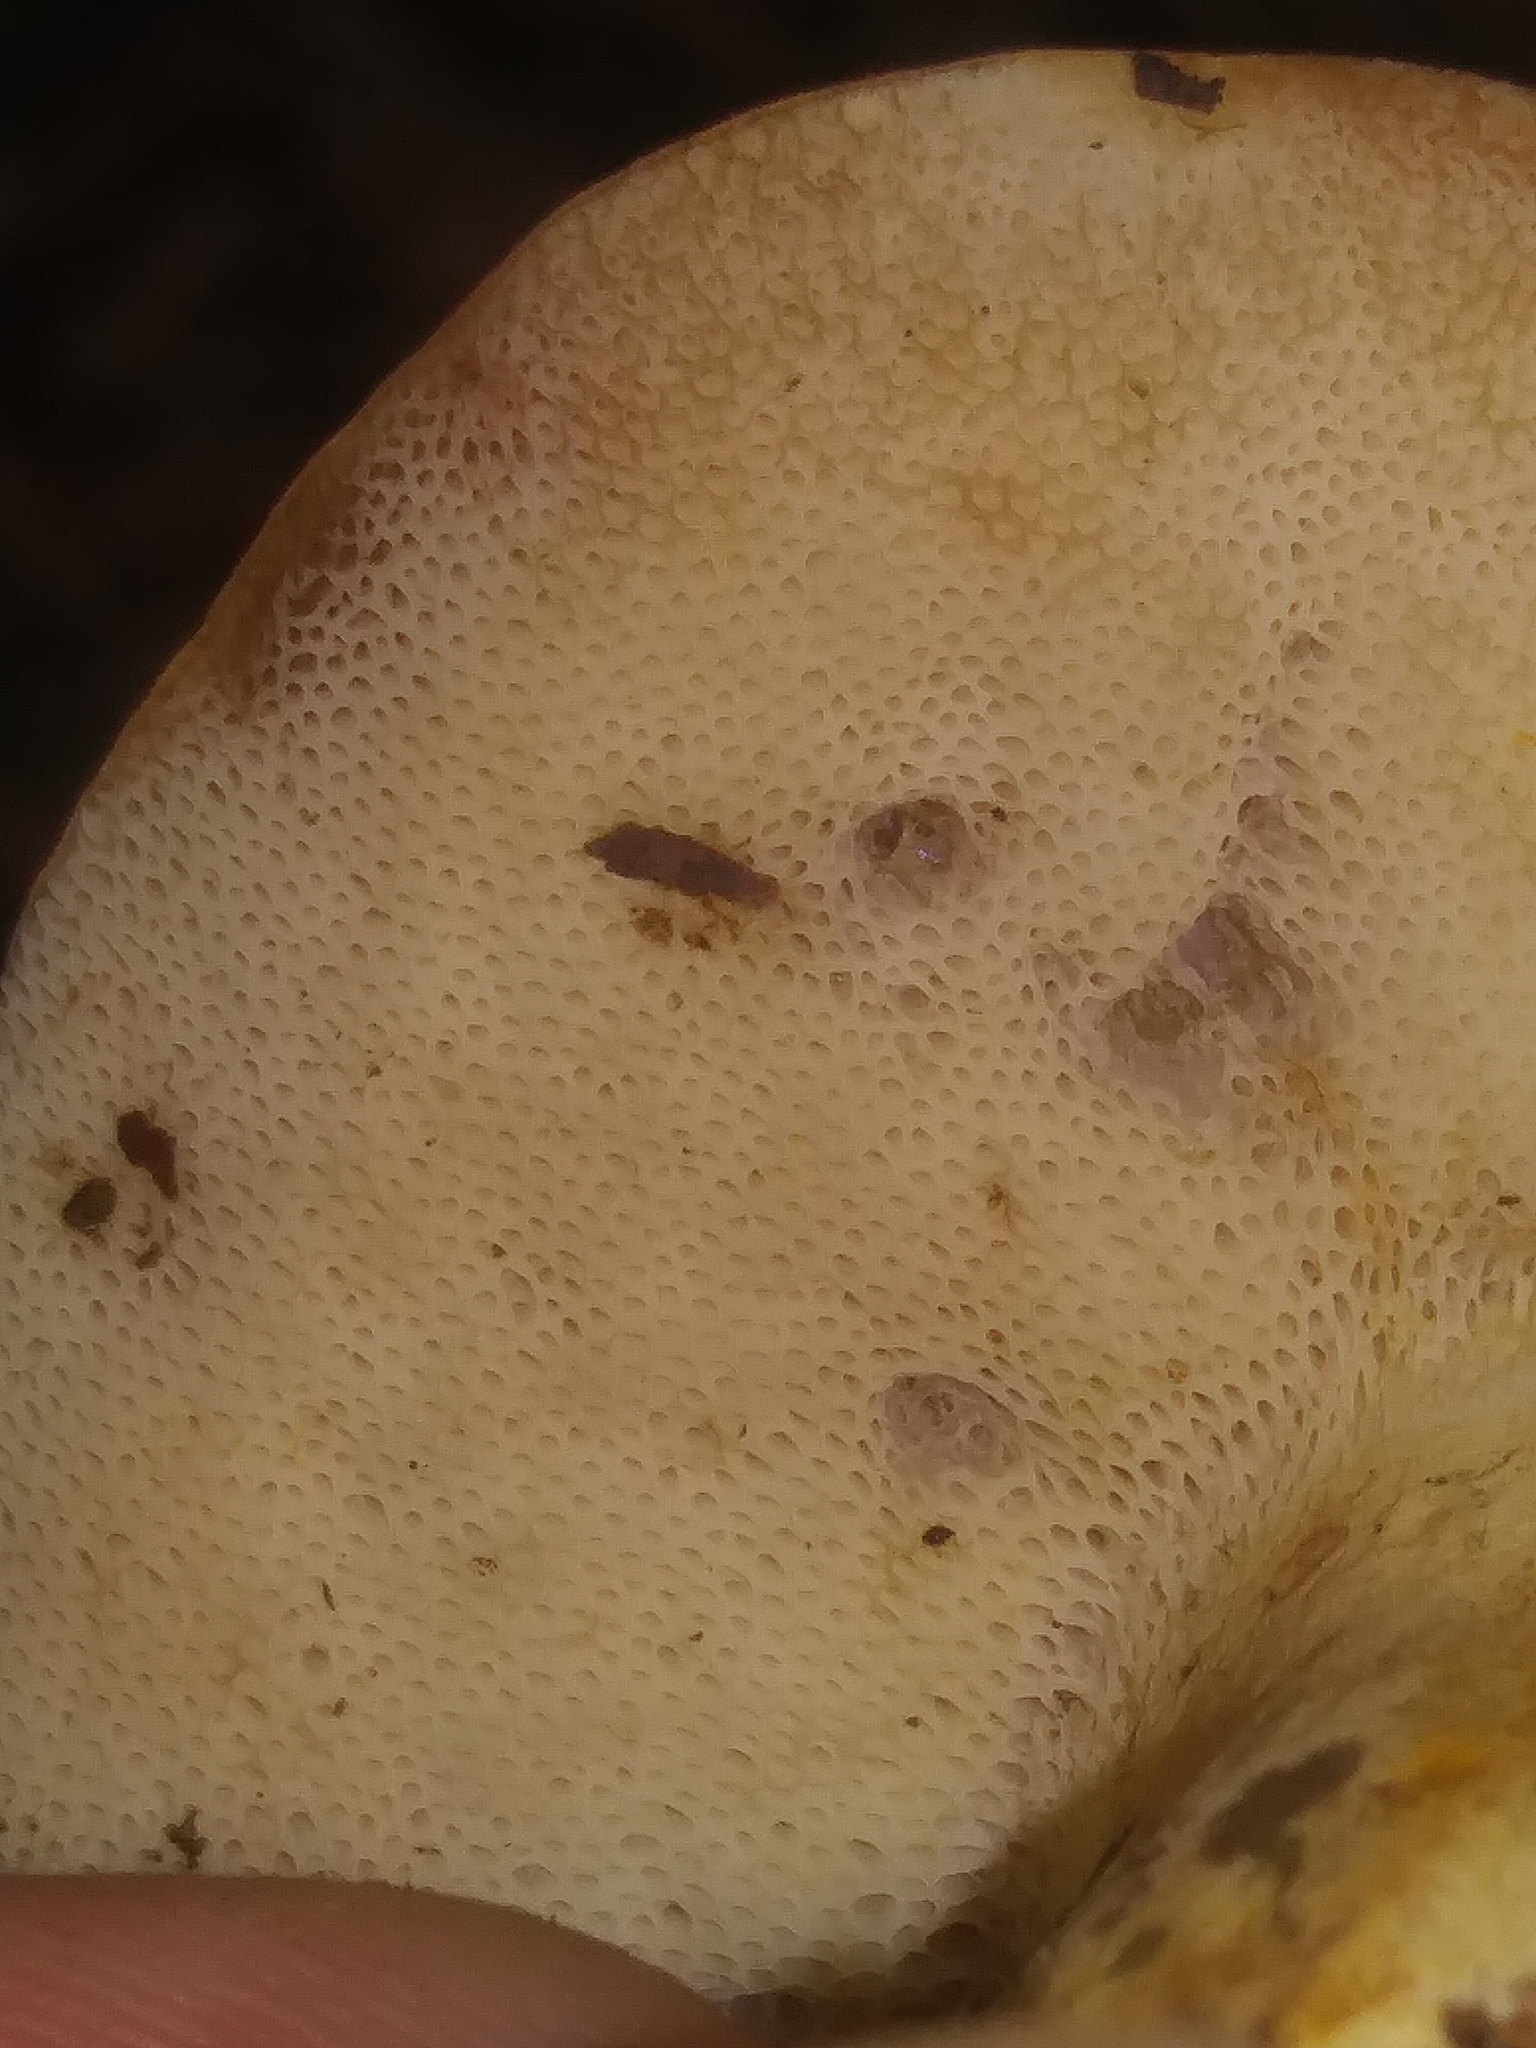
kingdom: Fungi
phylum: Basidiomycota
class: Agaricomycetes
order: Boletales
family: Boletaceae
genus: Tylopilus
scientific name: Tylopilus balloui
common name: Burnt-orange bolete
